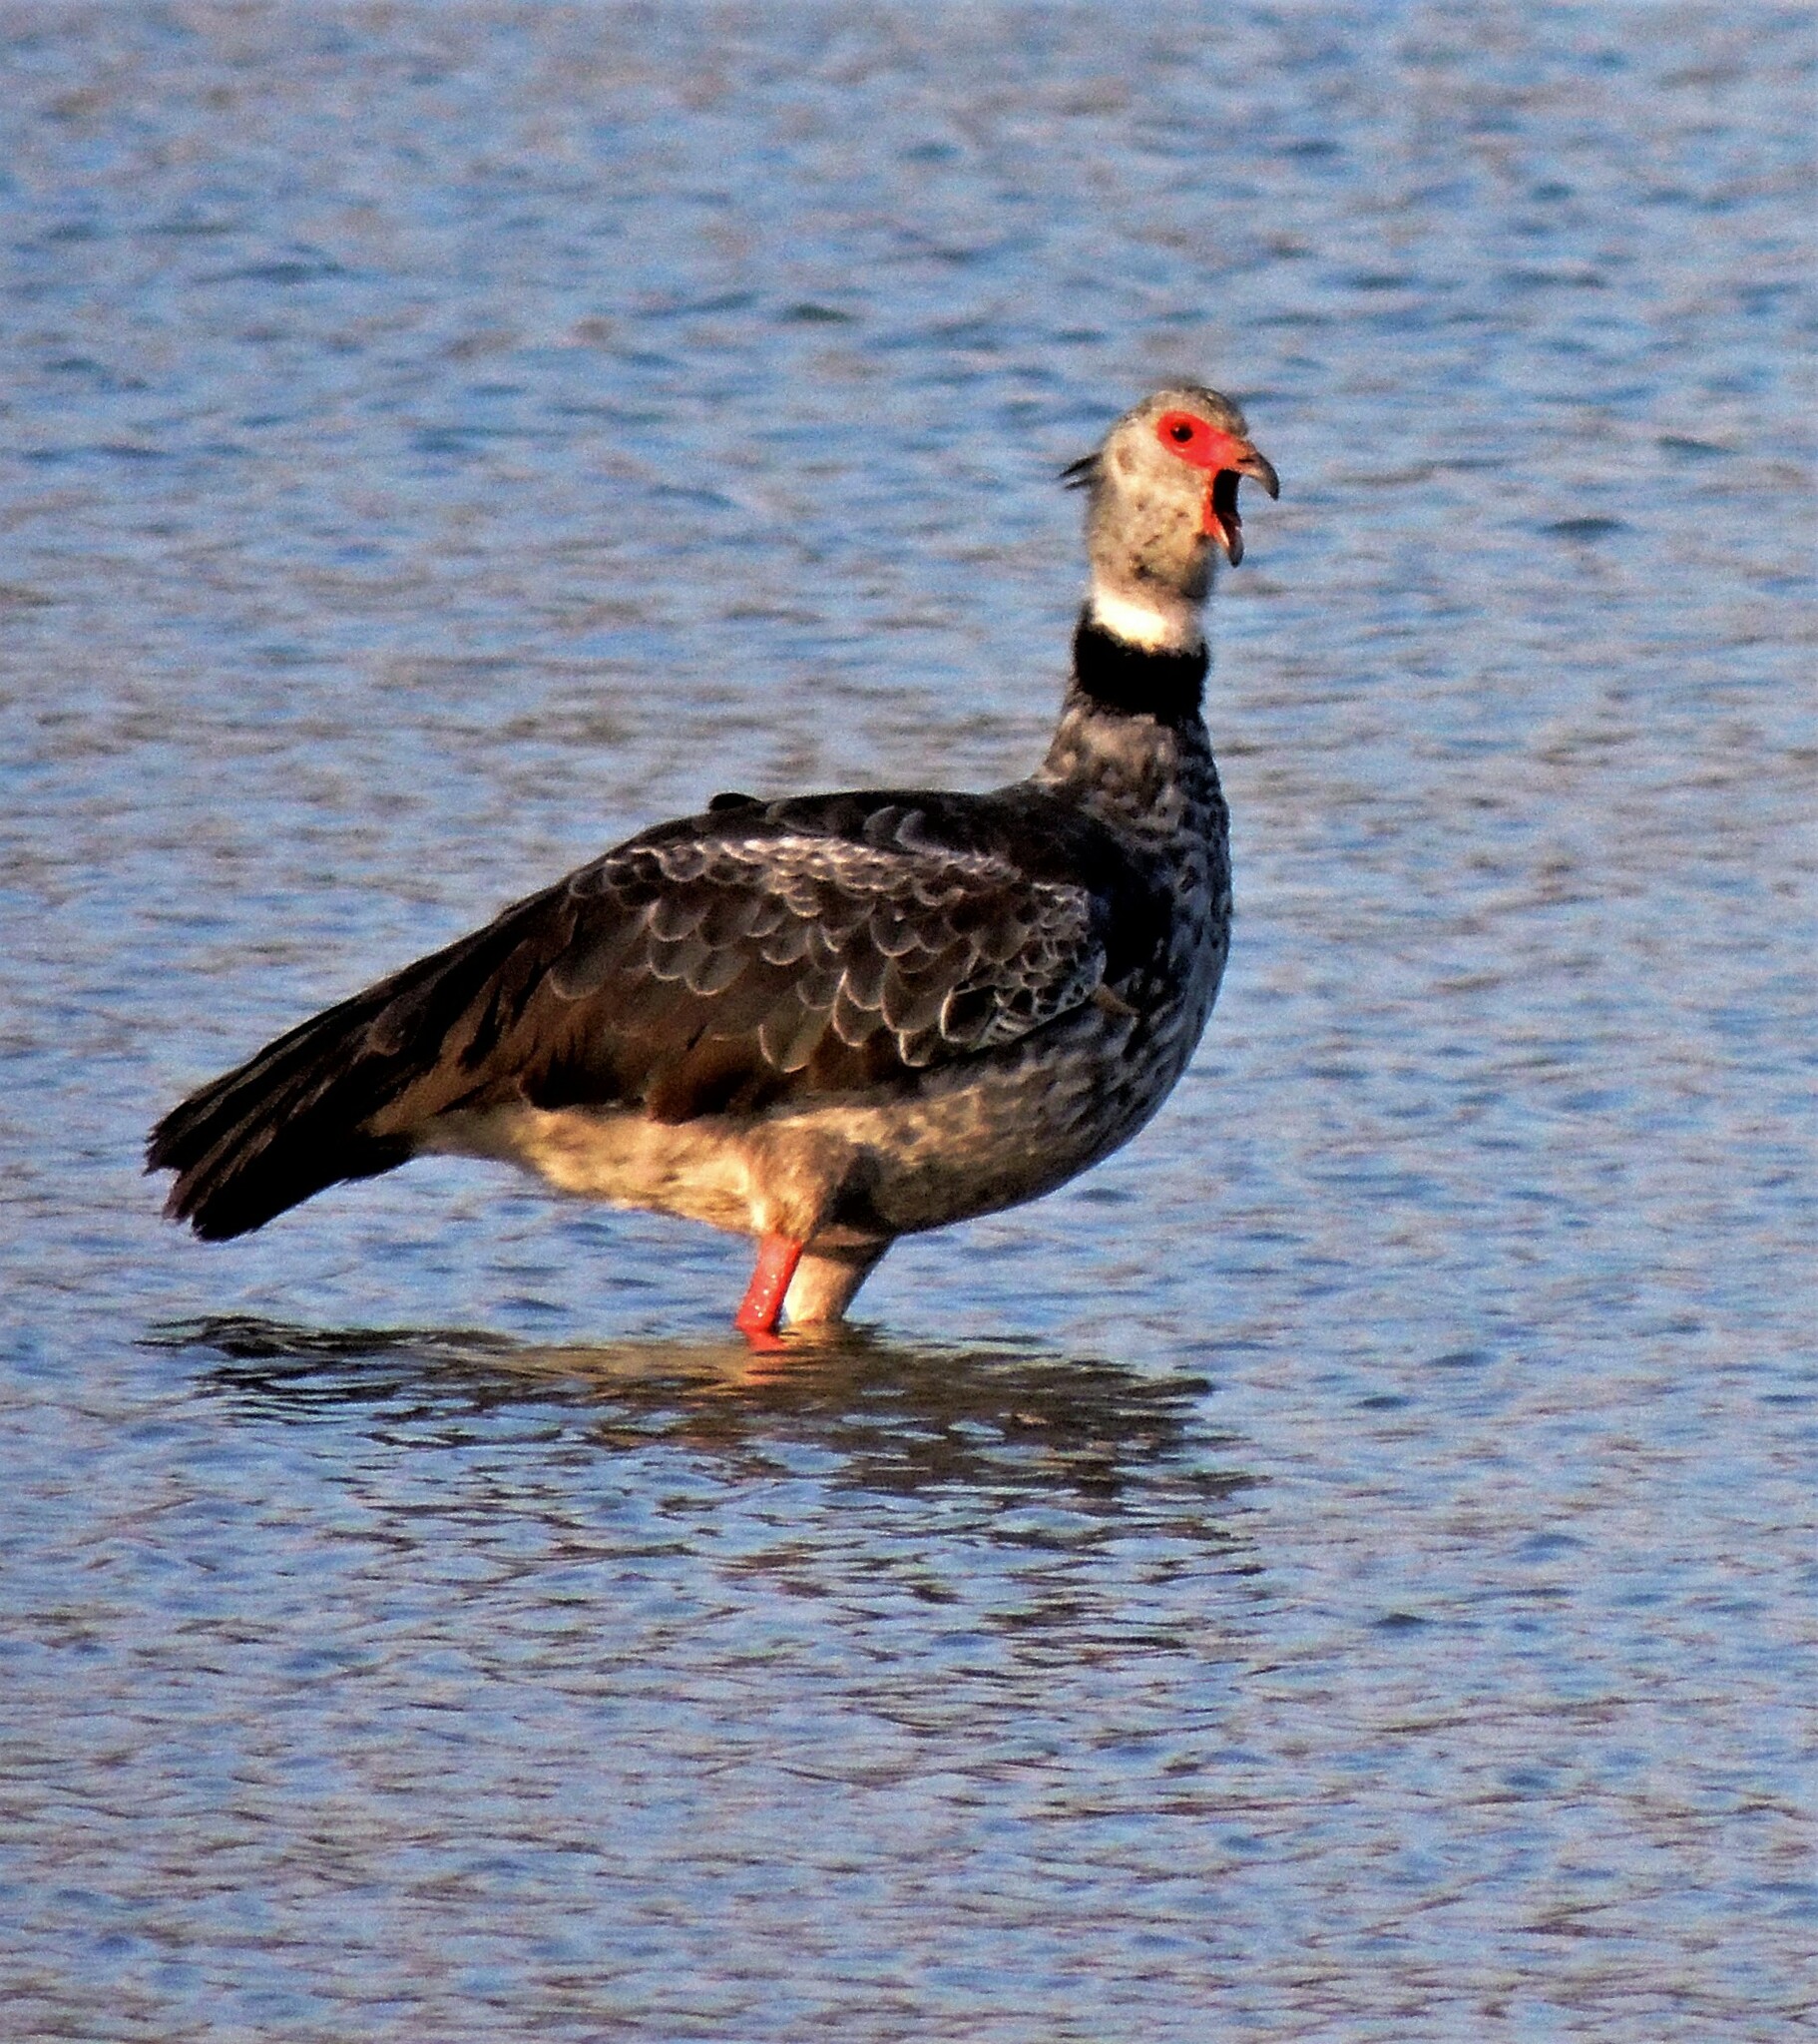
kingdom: Animalia
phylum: Chordata
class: Aves
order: Anseriformes
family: Anhimidae
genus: Chauna
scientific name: Chauna torquata
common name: Southern screamer
